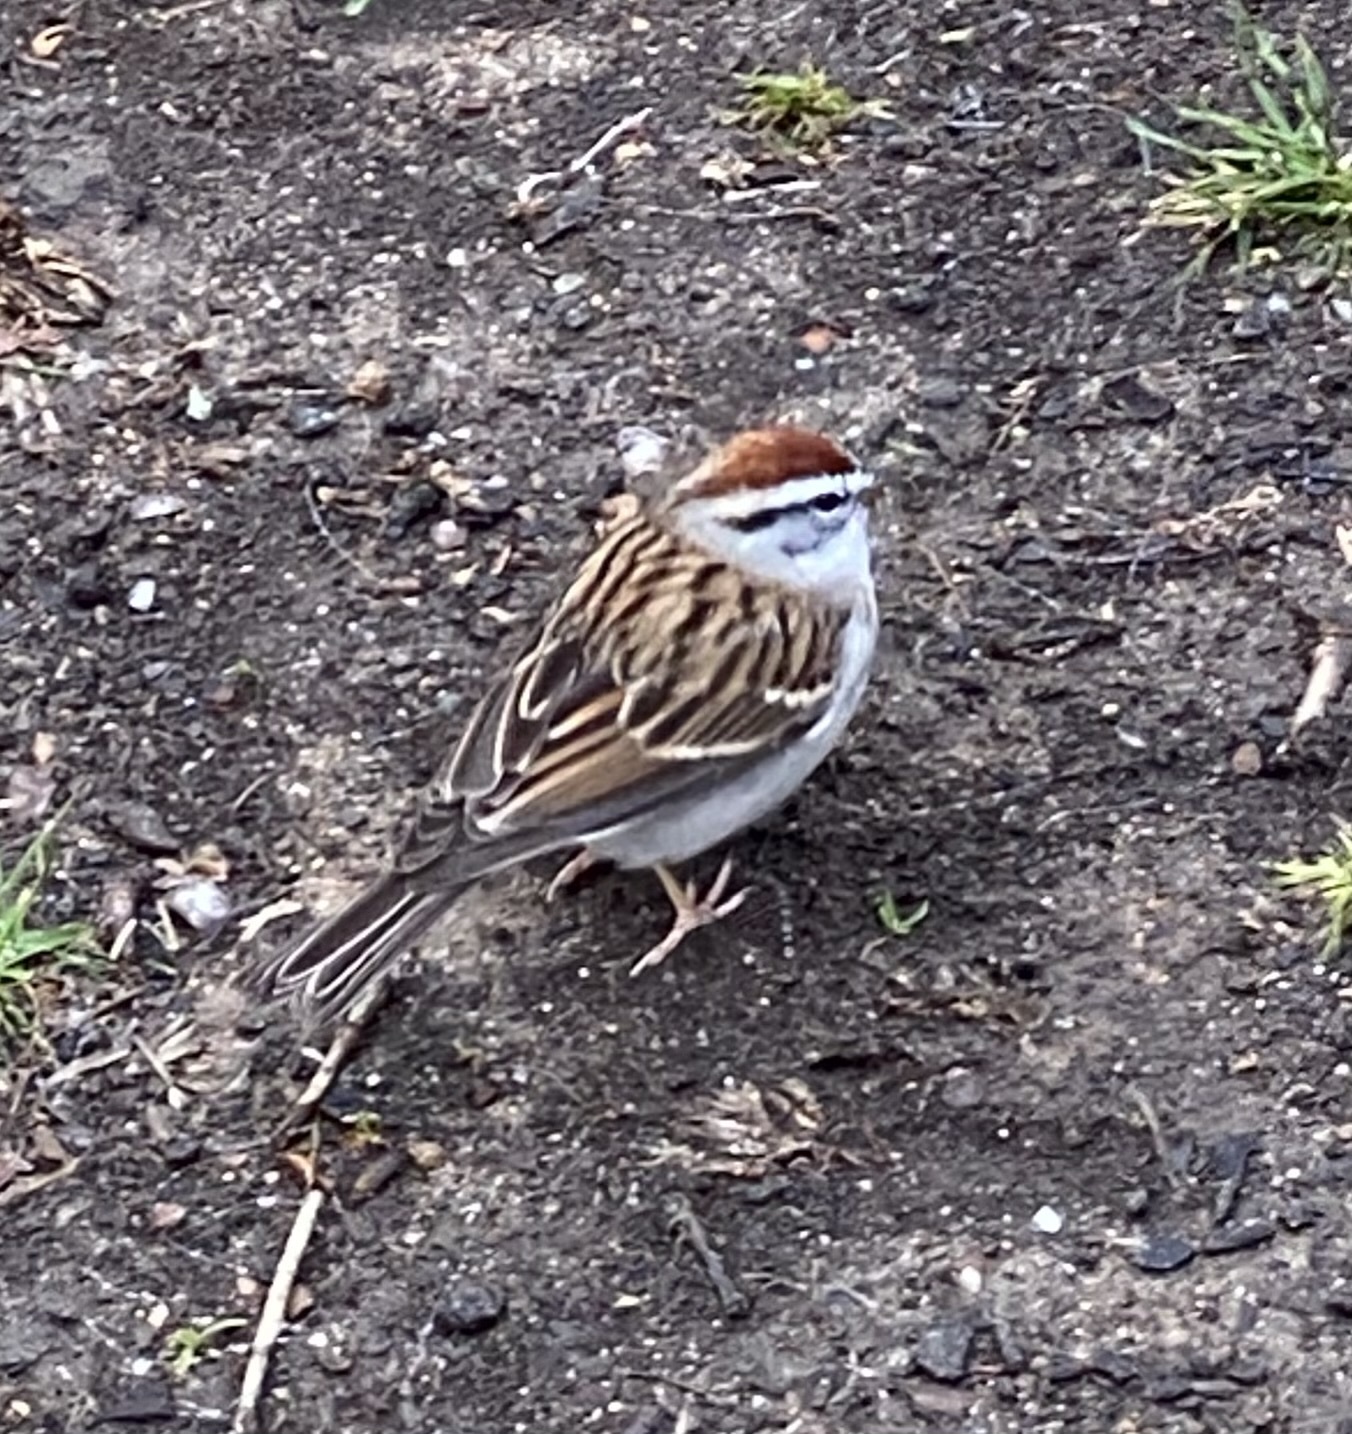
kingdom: Animalia
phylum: Chordata
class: Aves
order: Passeriformes
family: Passerellidae
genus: Spizella
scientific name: Spizella passerina
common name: Chipping sparrow
